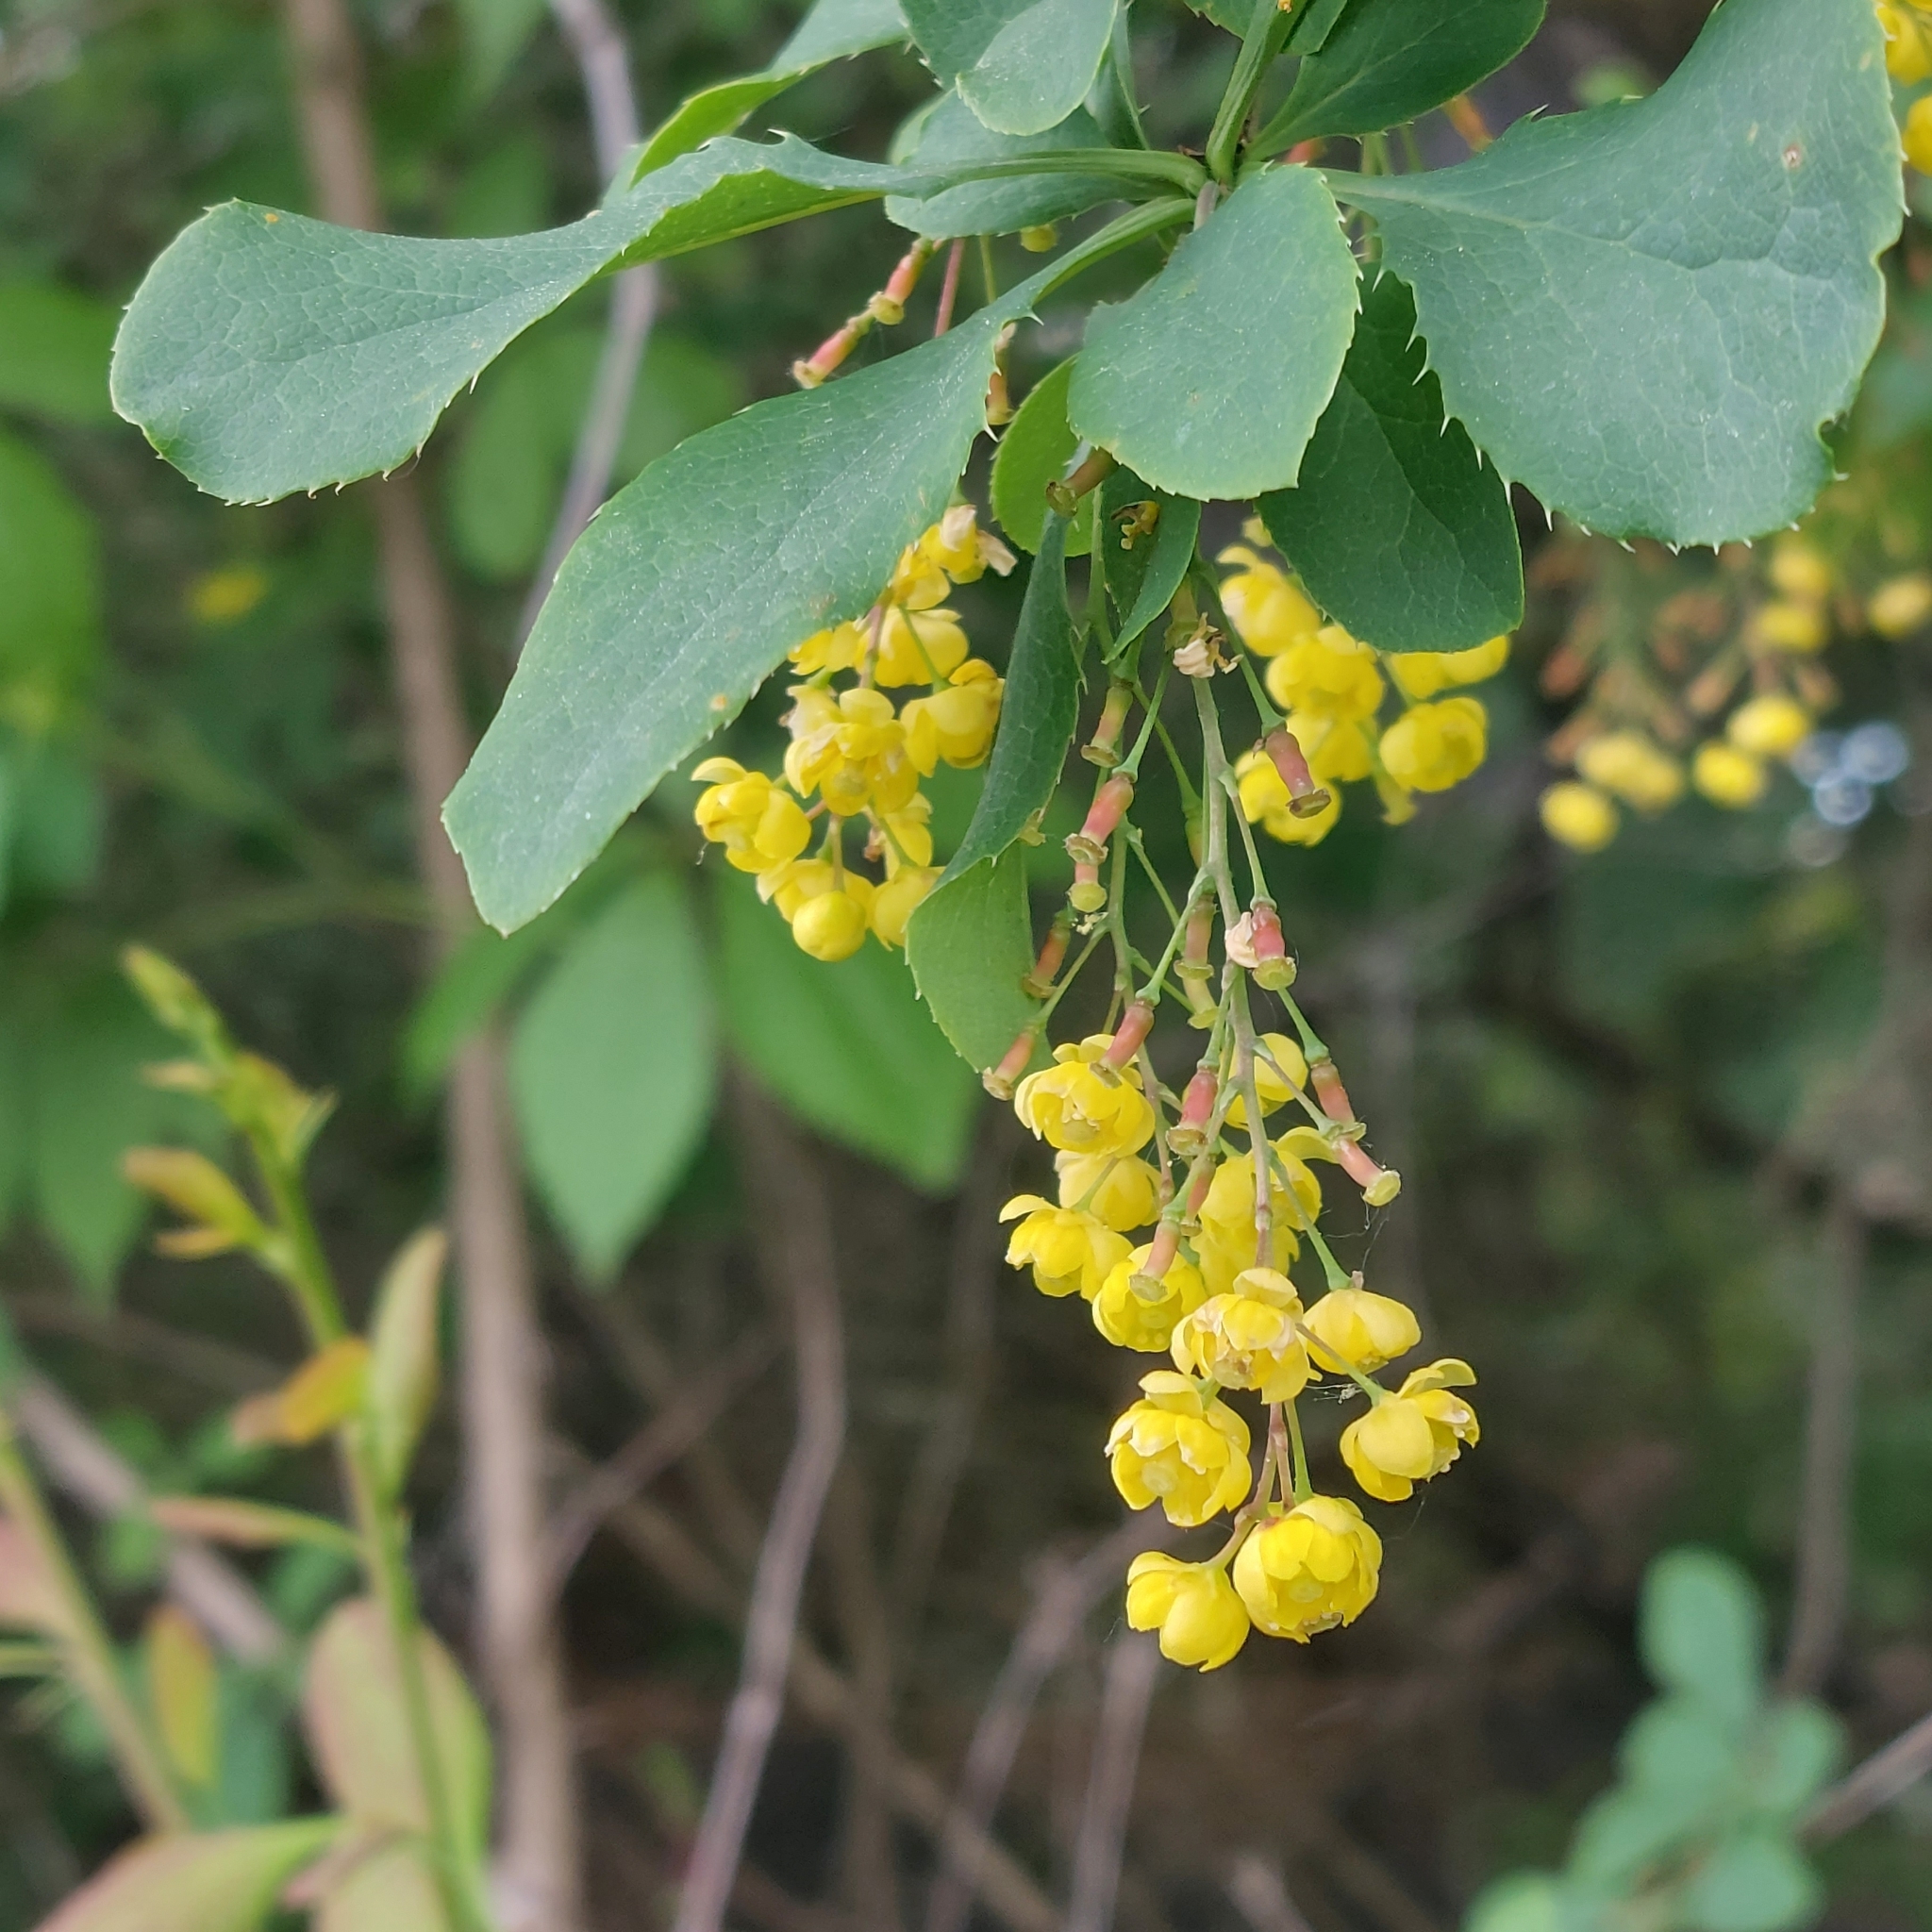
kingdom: Plantae
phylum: Tracheophyta
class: Magnoliopsida
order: Ranunculales
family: Berberidaceae
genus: Berberis
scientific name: Berberis vulgaris
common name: Barberry
